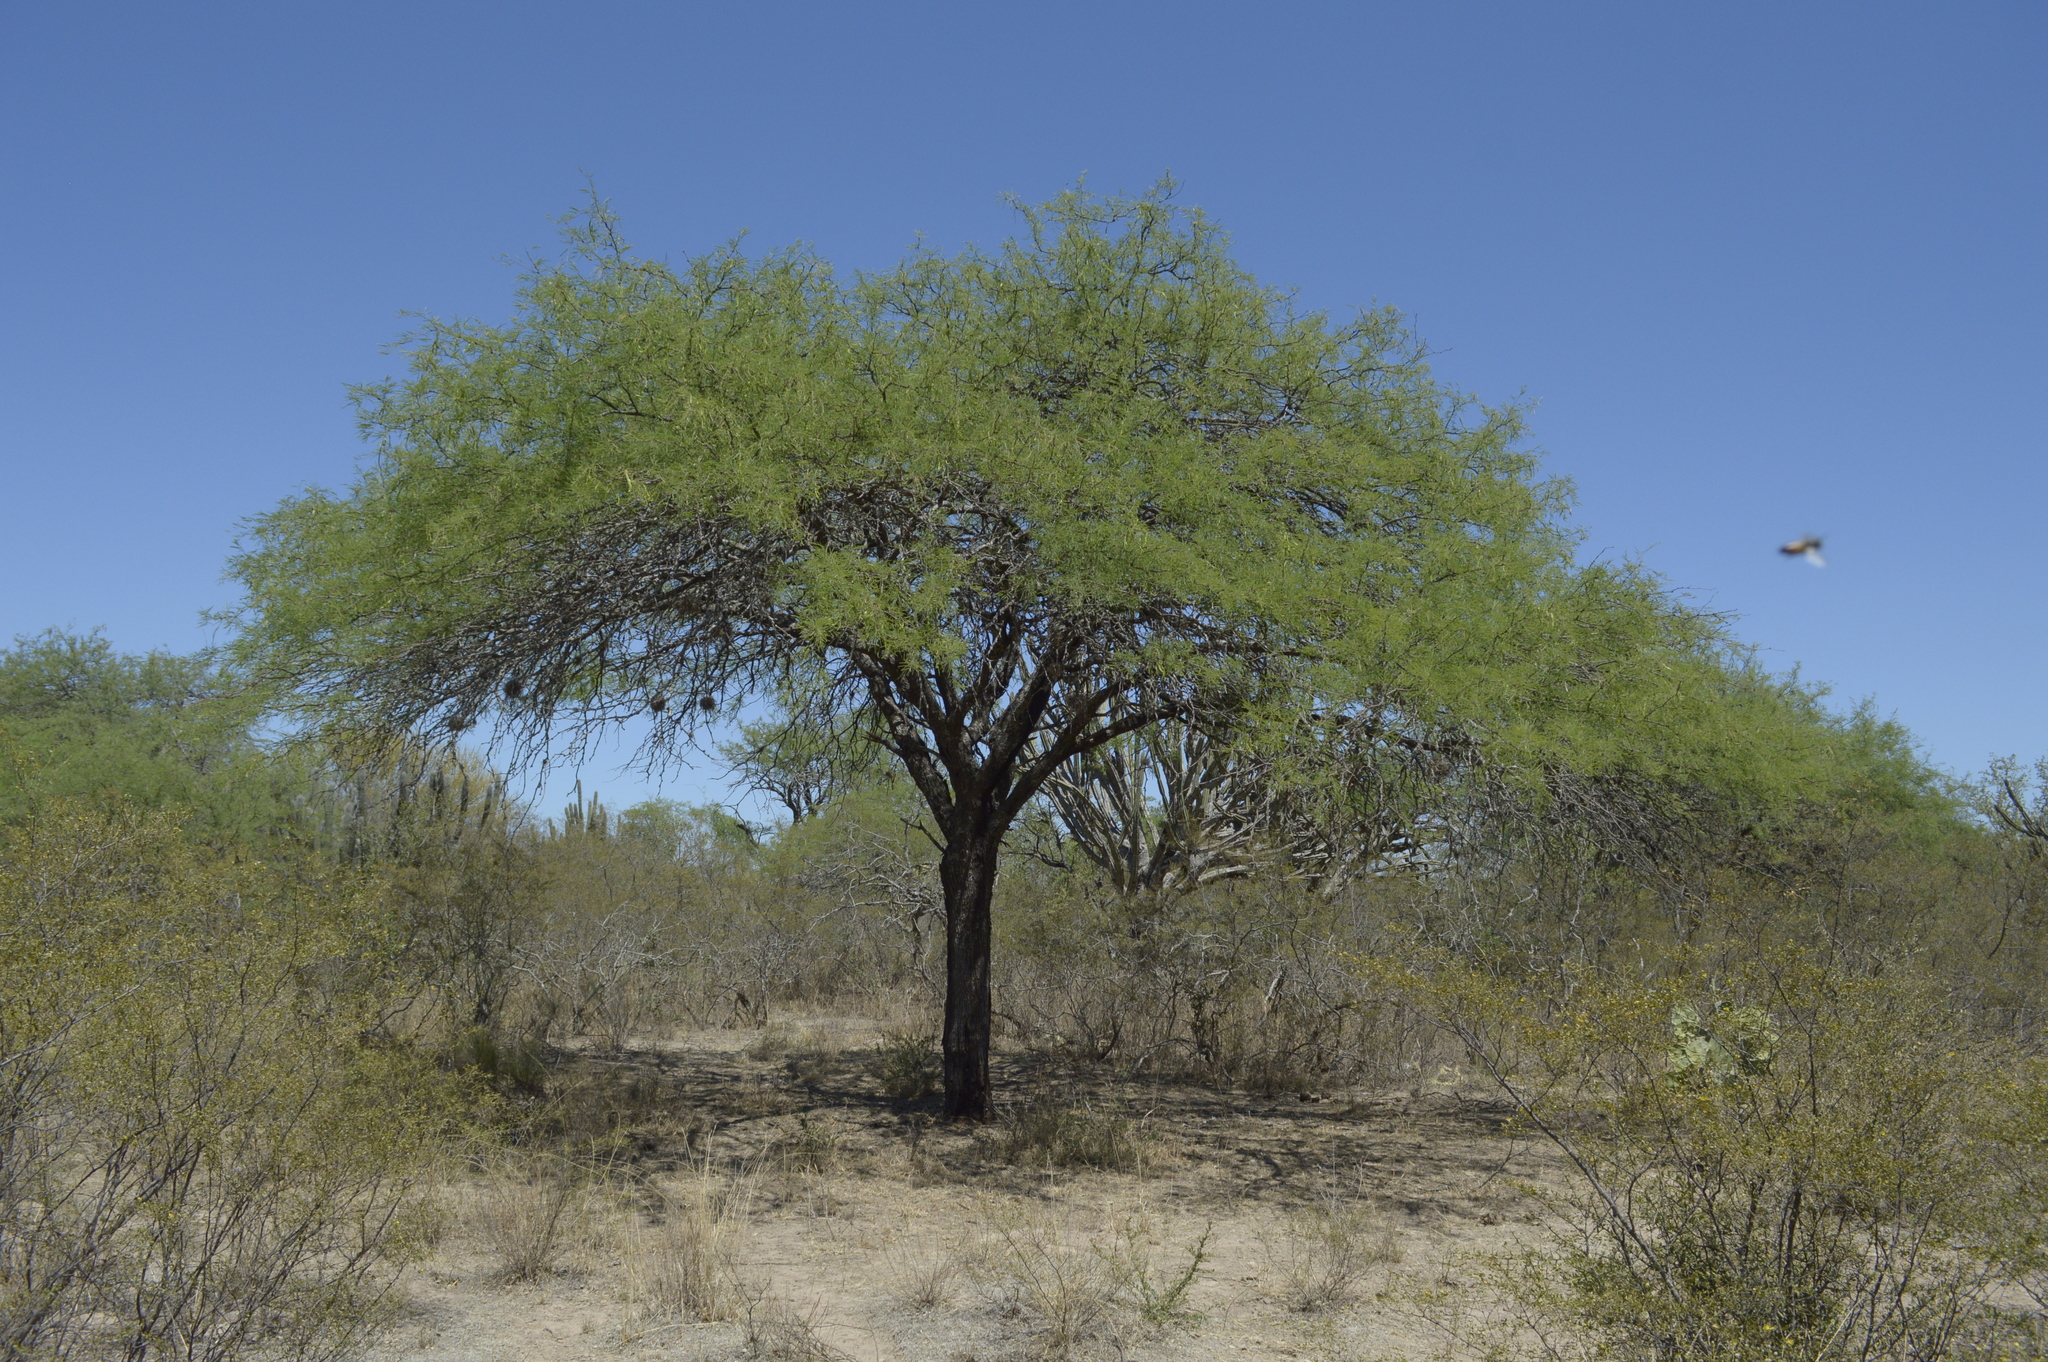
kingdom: Plantae
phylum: Tracheophyta
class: Magnoliopsida
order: Fabales
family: Fabaceae
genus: Prosopis
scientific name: Prosopis nigra
